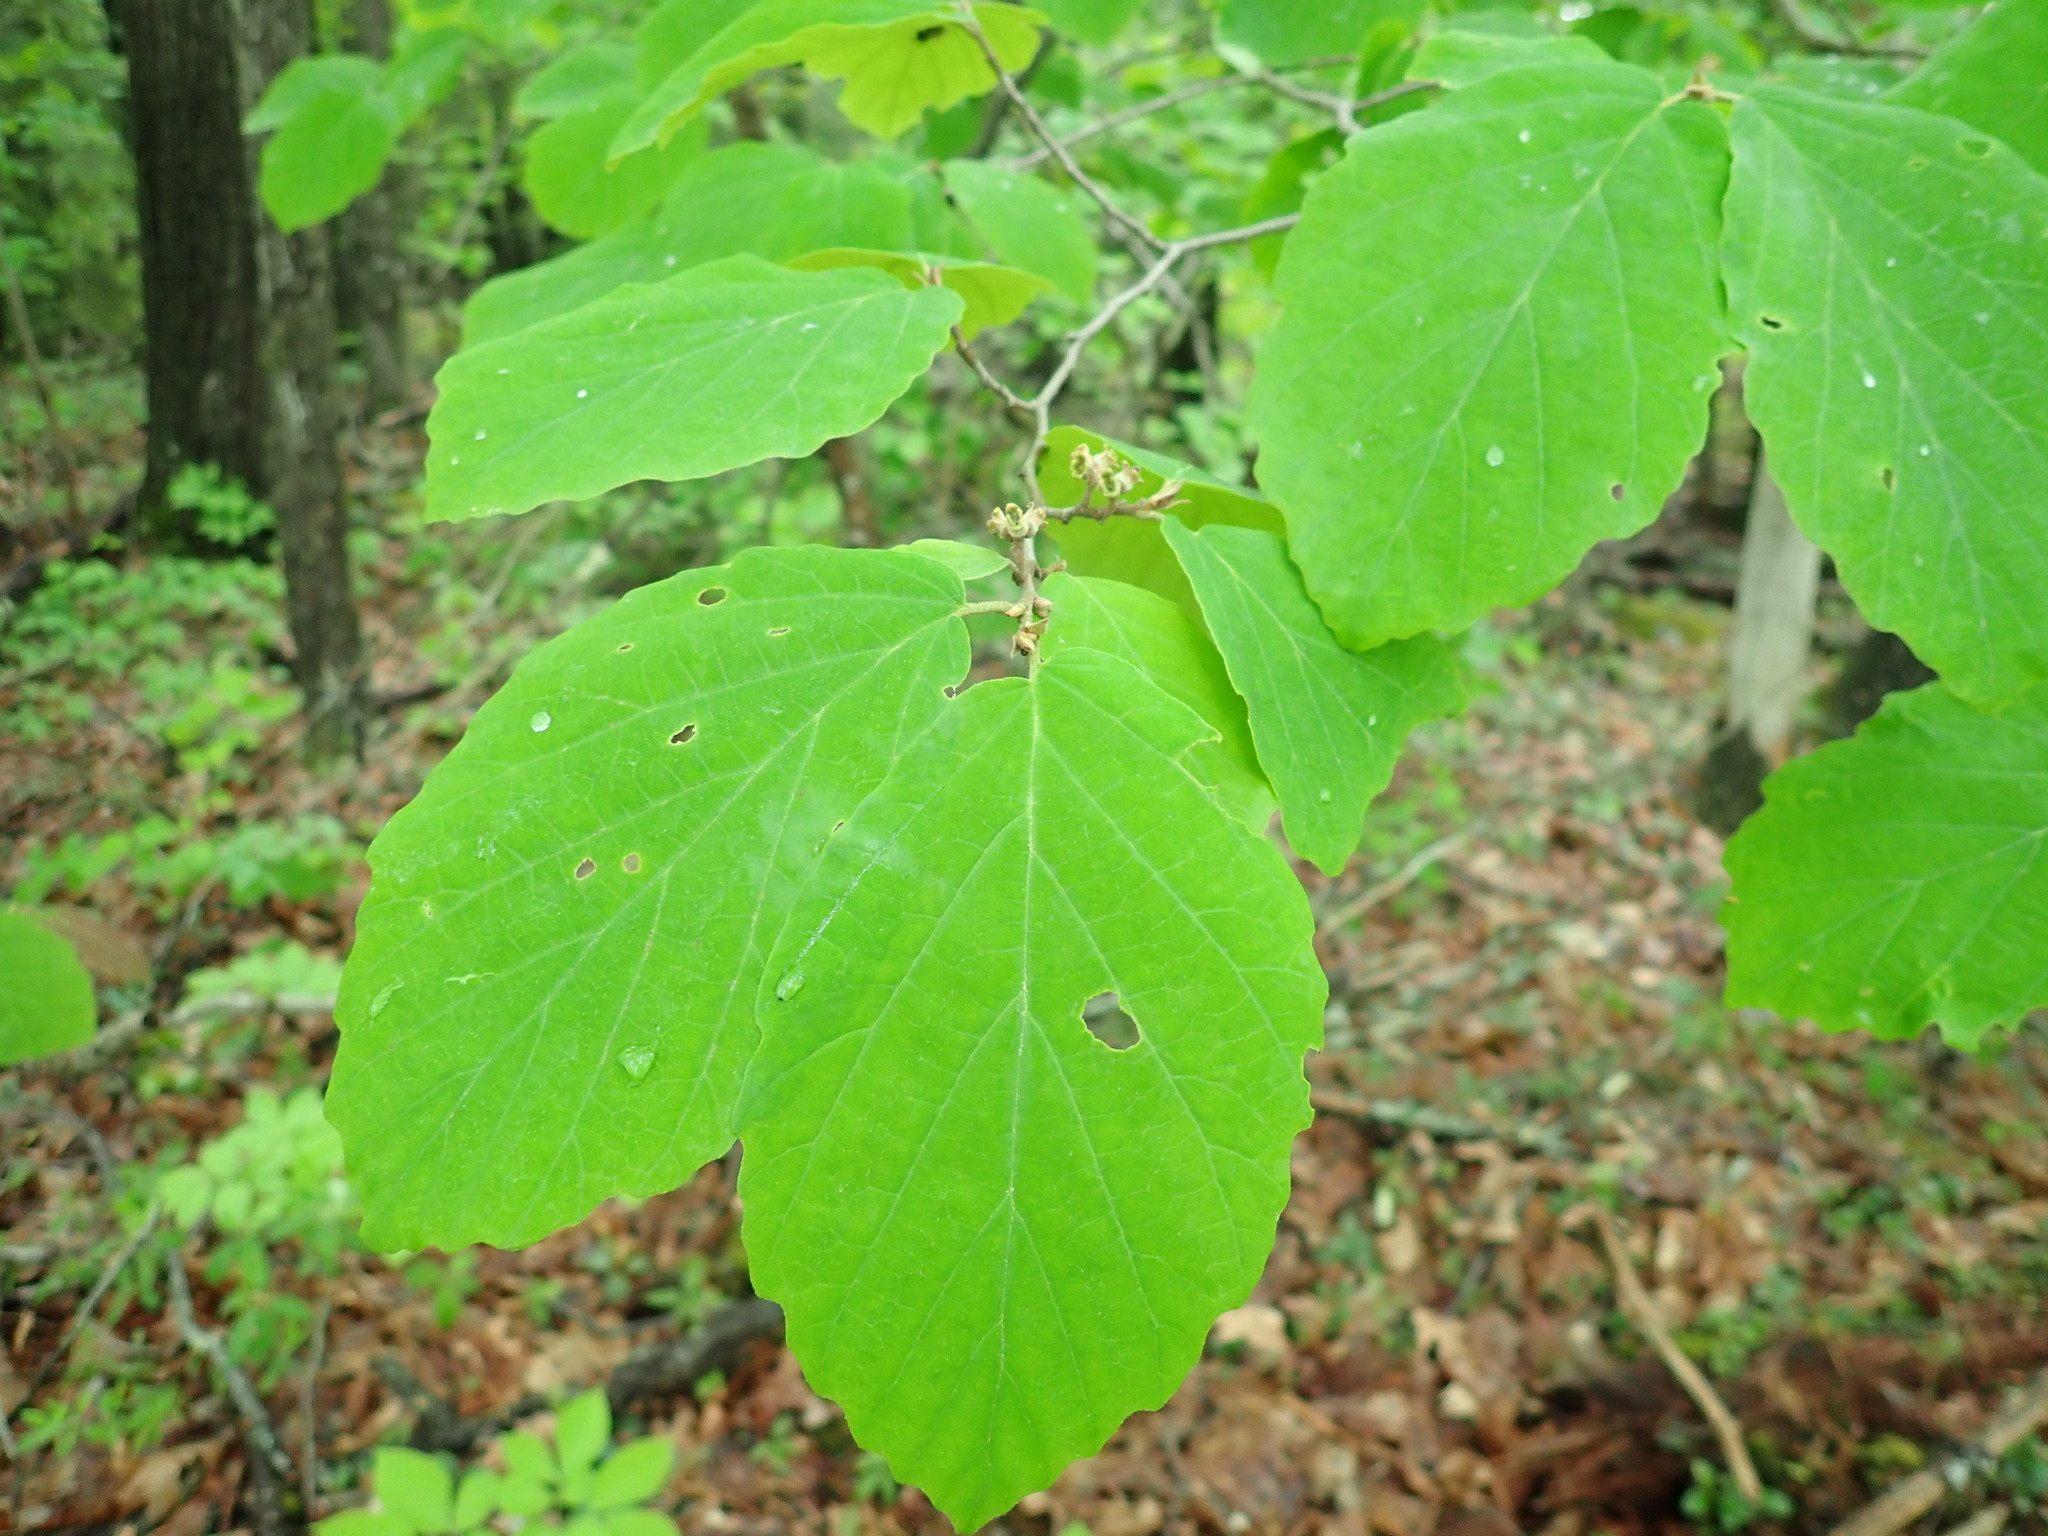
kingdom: Plantae
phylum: Tracheophyta
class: Magnoliopsida
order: Saxifragales
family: Hamamelidaceae
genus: Hamamelis
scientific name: Hamamelis virginiana
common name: Witch-hazel
